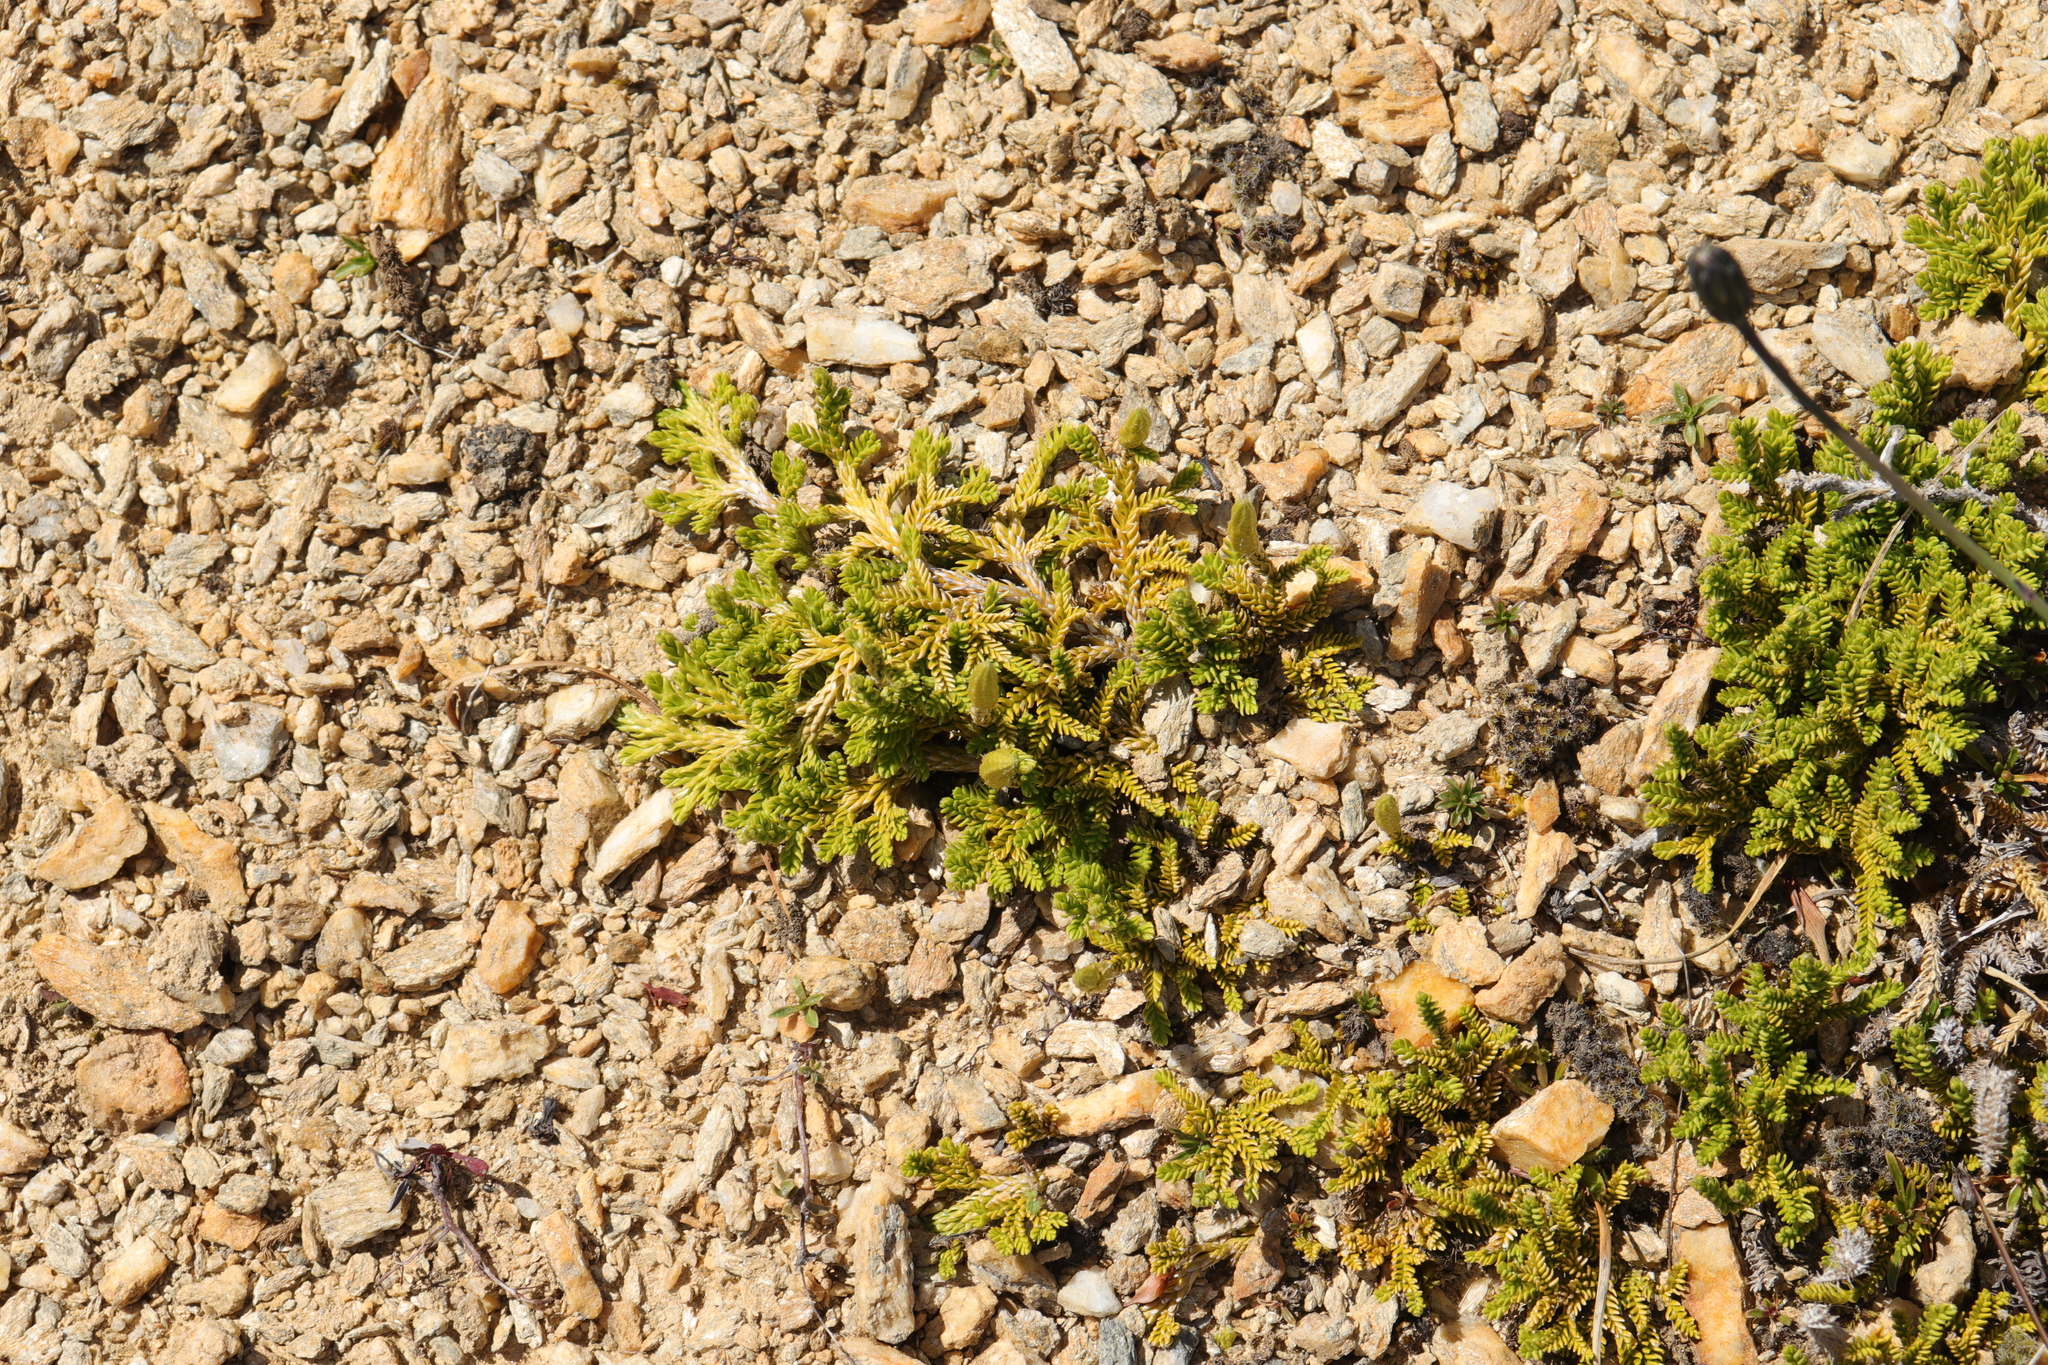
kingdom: Plantae
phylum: Tracheophyta
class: Lycopodiopsida
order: Lycopodiales
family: Lycopodiaceae
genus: Diphasium
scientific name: Diphasium scariosum
